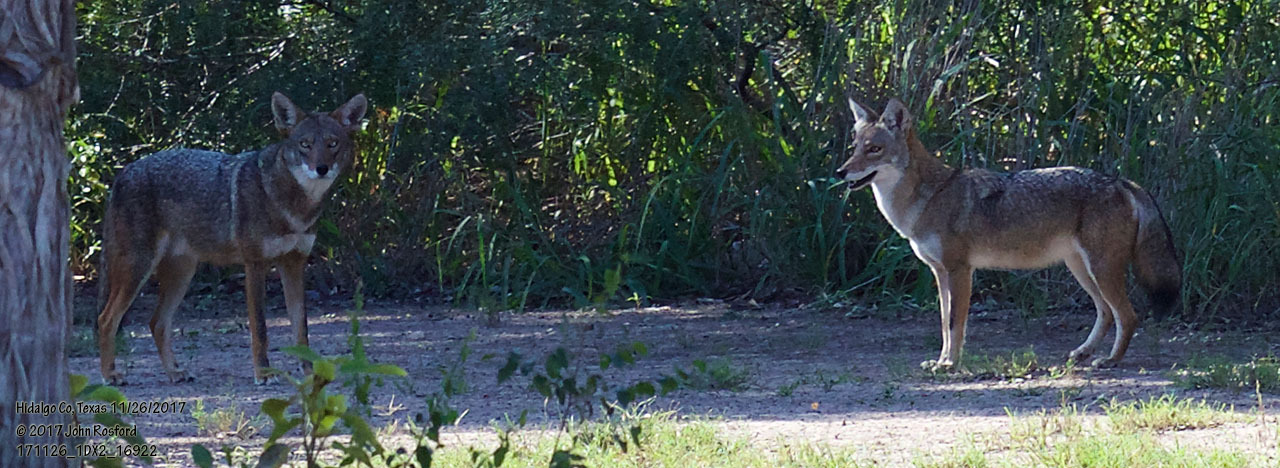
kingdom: Animalia
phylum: Chordata
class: Mammalia
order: Carnivora
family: Canidae
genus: Canis
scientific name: Canis latrans
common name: Coyote
